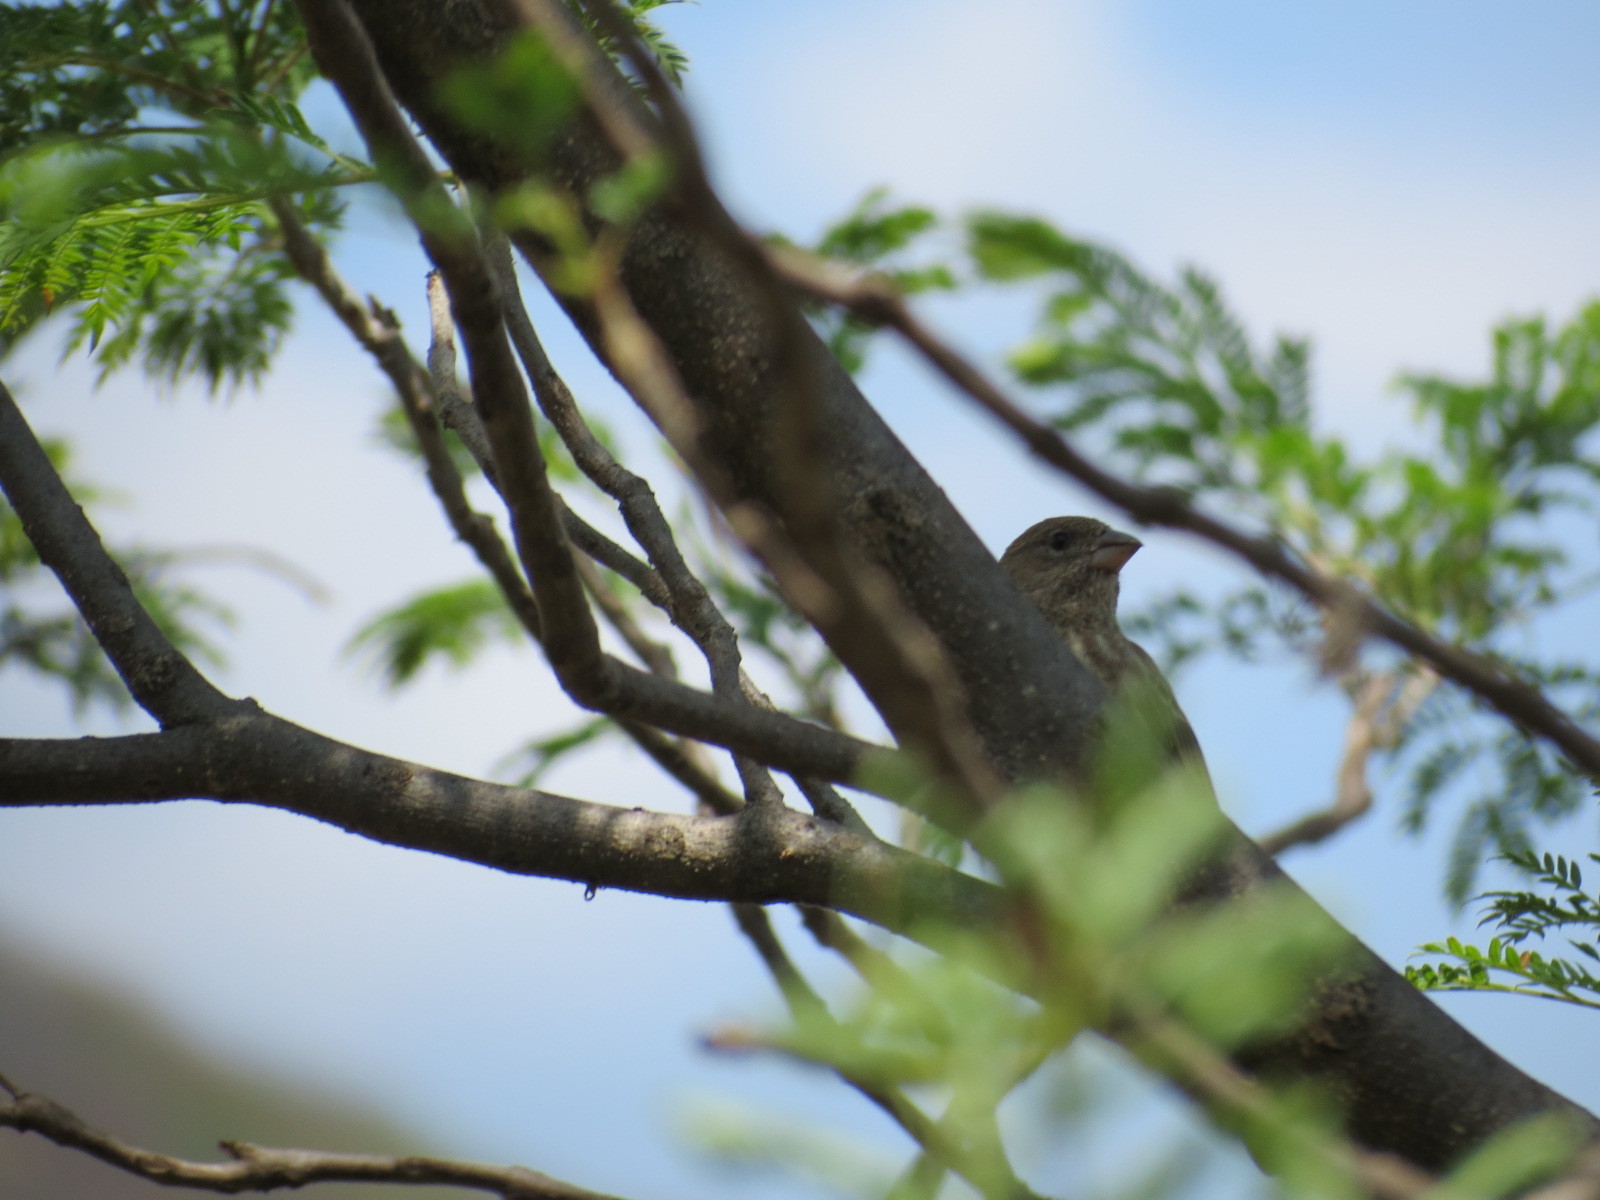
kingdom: Animalia
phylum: Chordata
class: Aves
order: Passeriformes
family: Fringillidae
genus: Haemorhous
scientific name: Haemorhous mexicanus
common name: House finch
